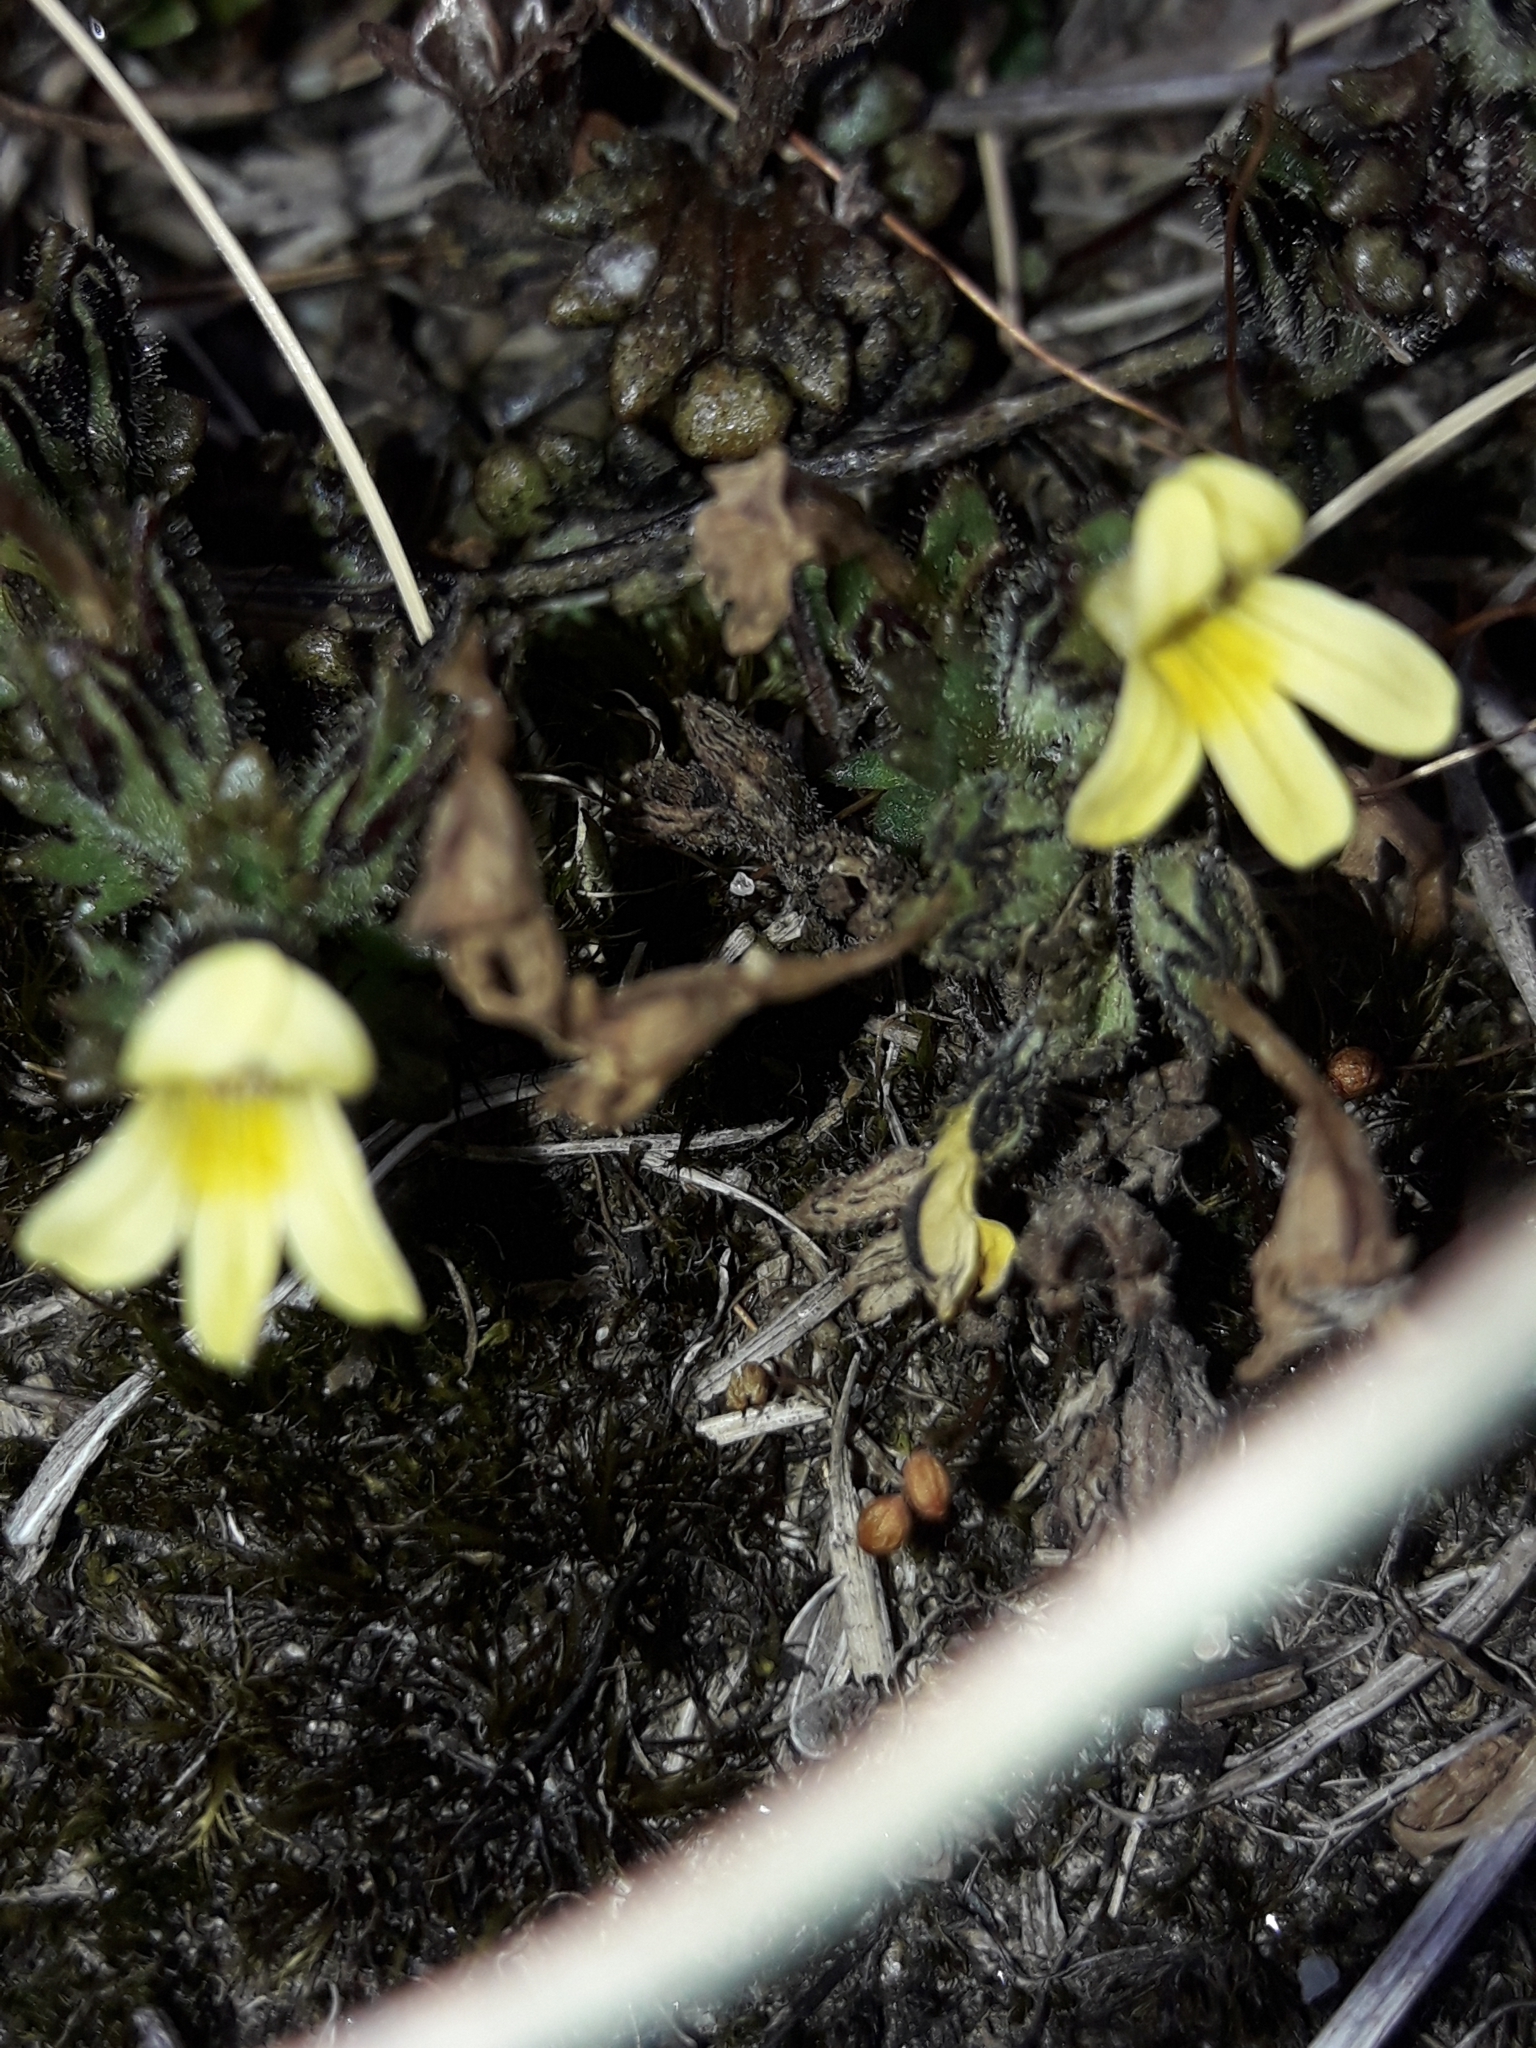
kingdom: Plantae
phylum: Tracheophyta
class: Magnoliopsida
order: Lamiales
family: Orobanchaceae
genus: Euphrasia
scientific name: Euphrasia cockayneana
